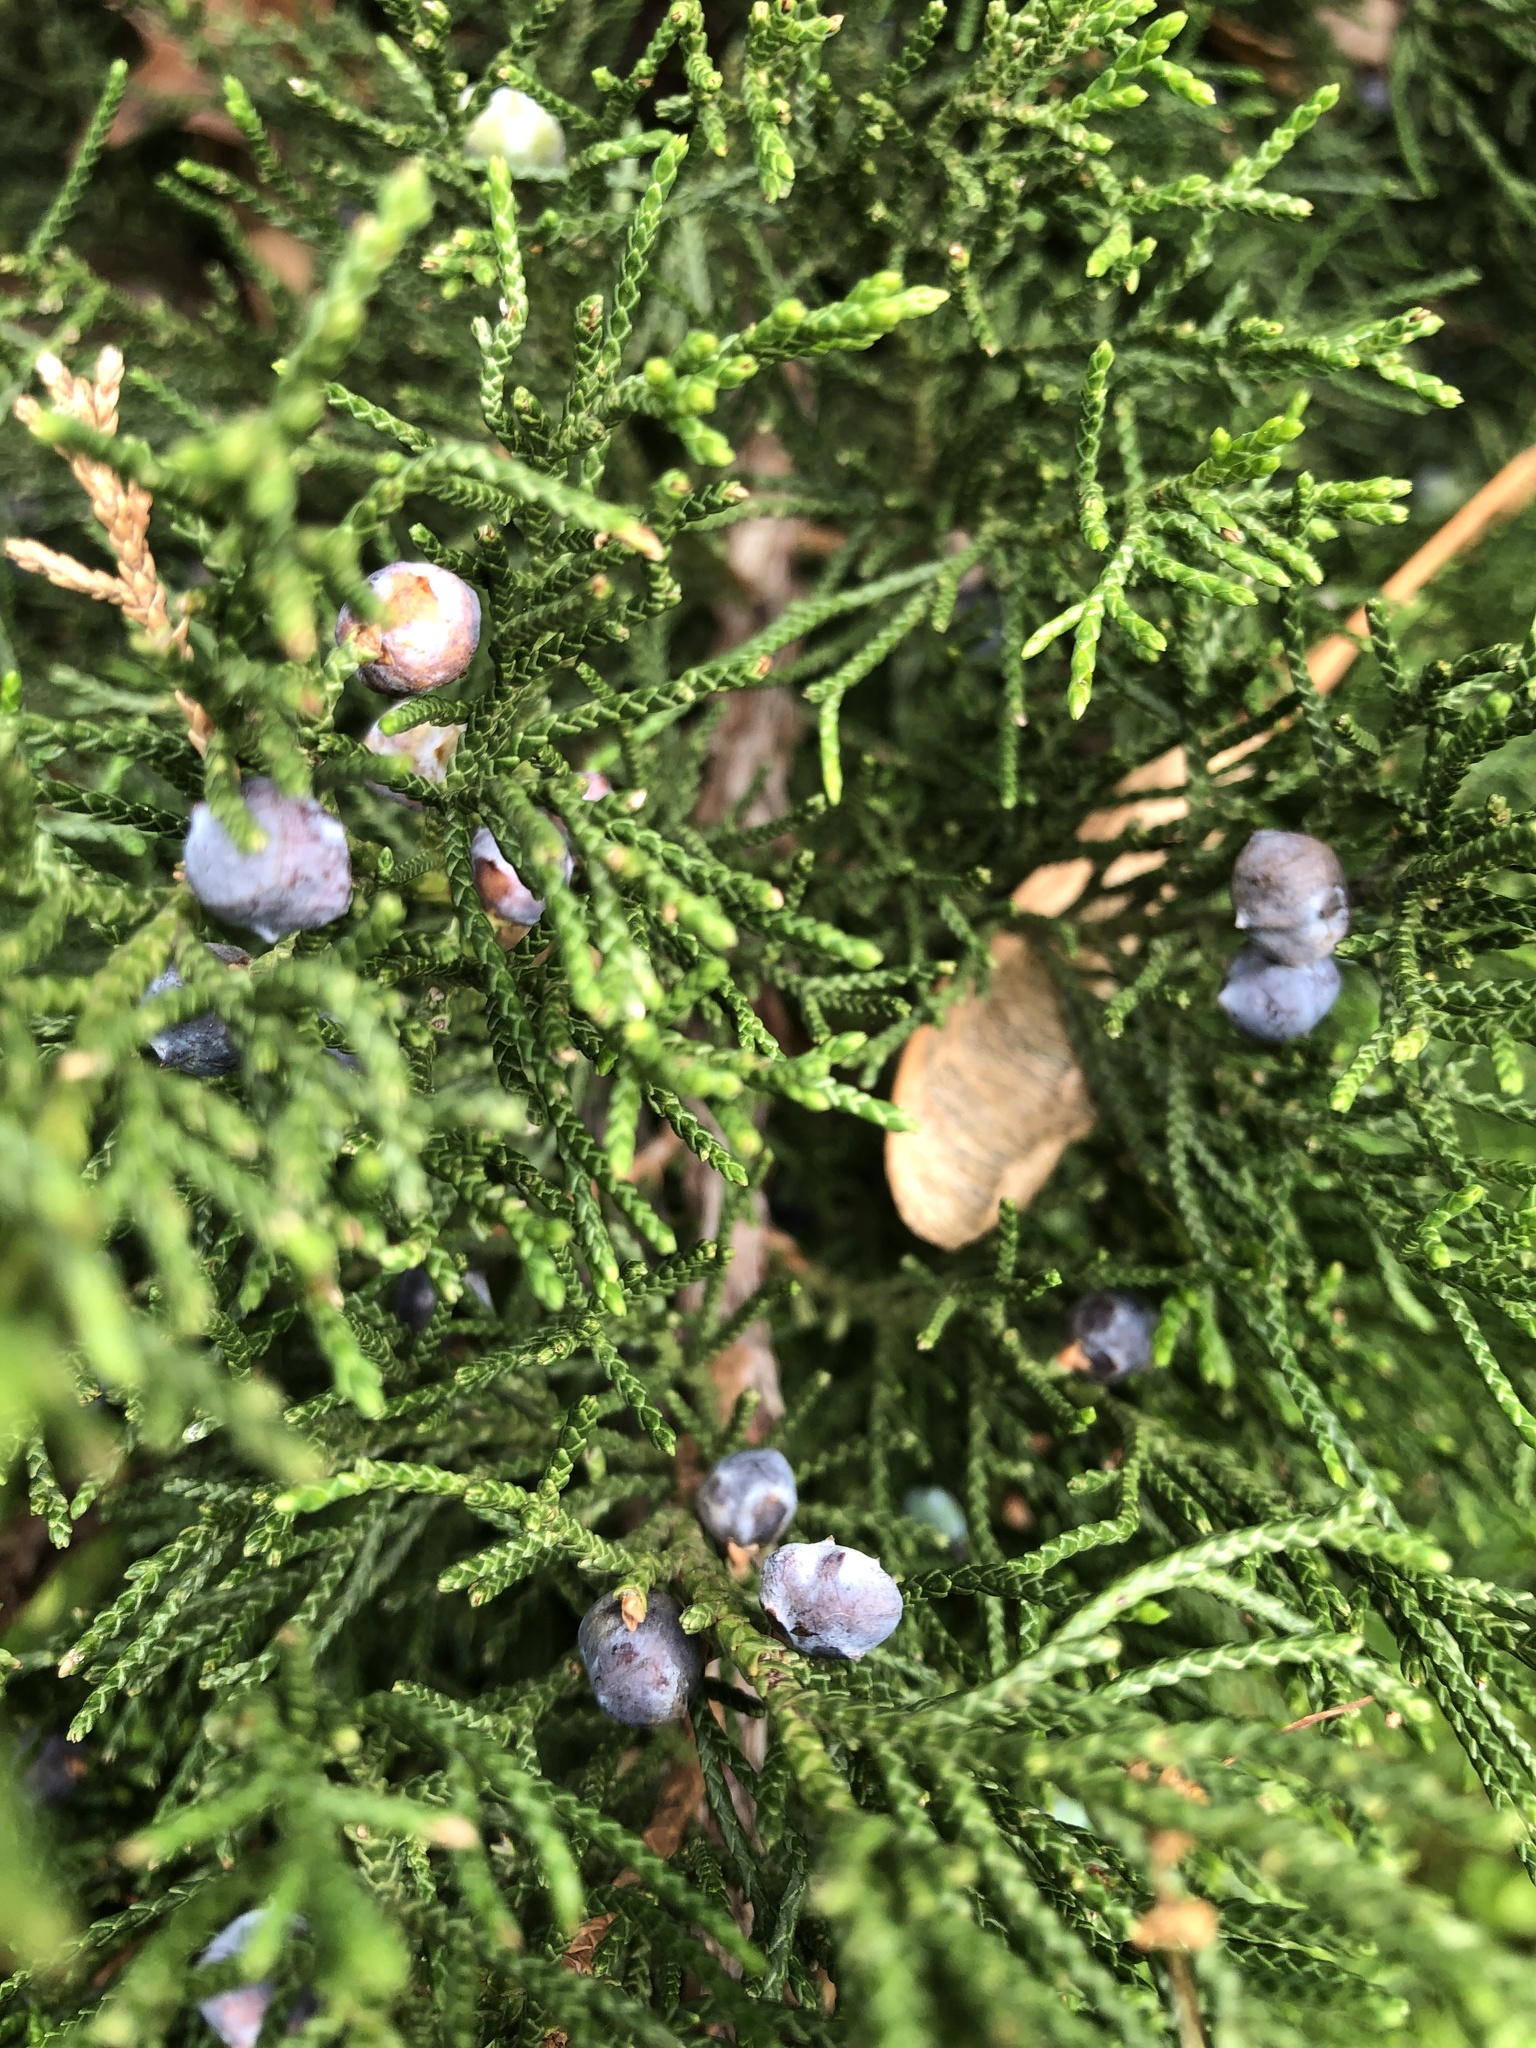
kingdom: Plantae
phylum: Tracheophyta
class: Pinopsida
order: Pinales
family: Cupressaceae
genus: Juniperus
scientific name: Juniperus virginiana
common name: Red juniper
